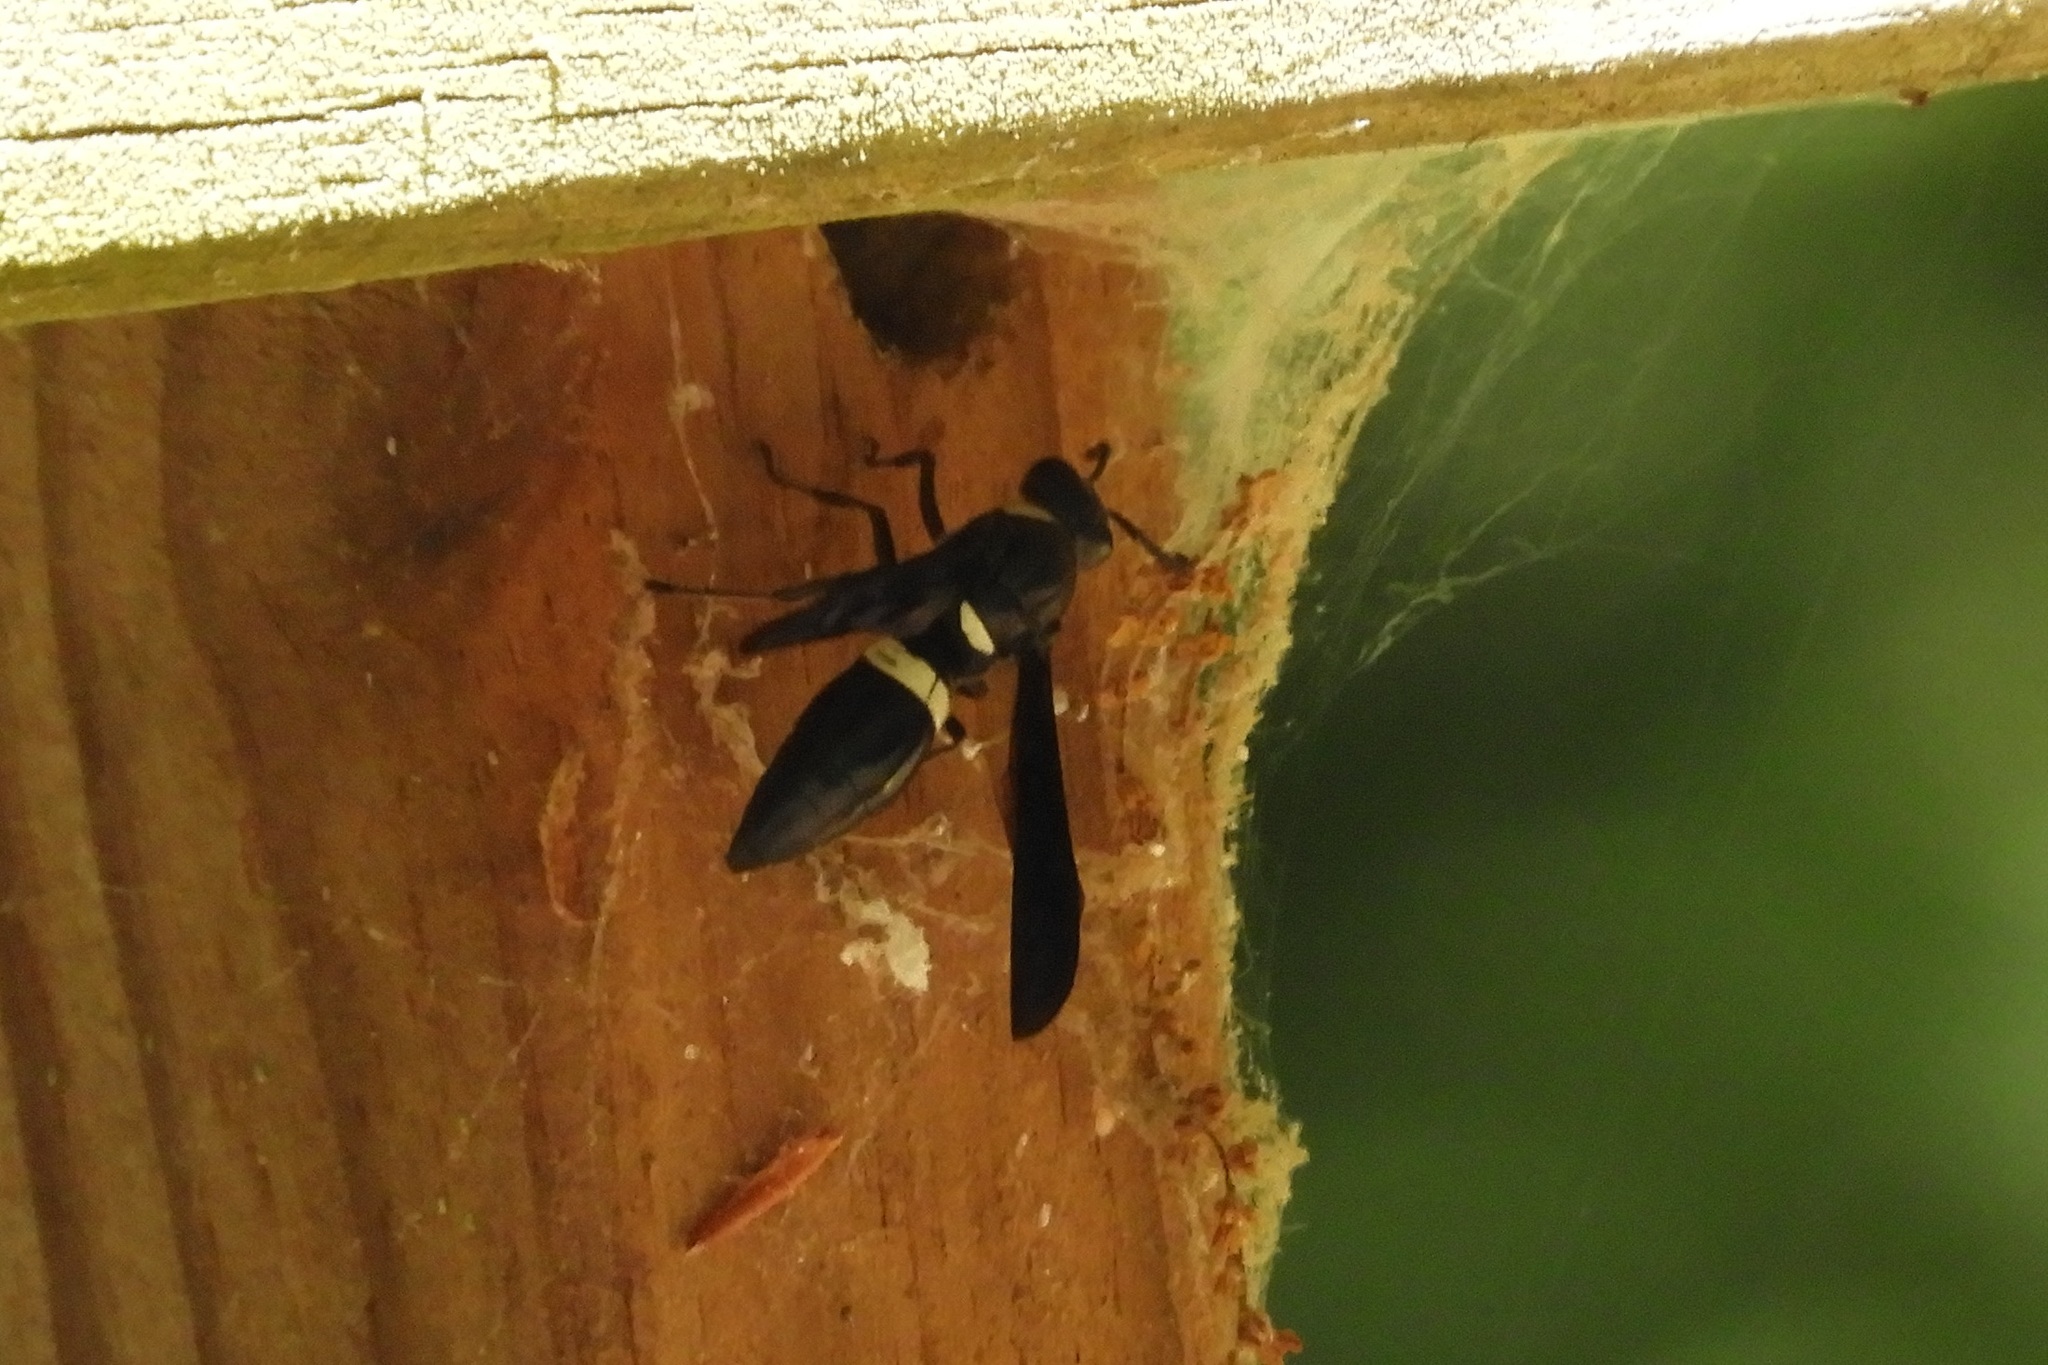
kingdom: Animalia
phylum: Arthropoda
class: Insecta
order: Hymenoptera
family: Eumenidae
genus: Monobia
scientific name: Monobia quadridens
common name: Four-toothed mason wasp
